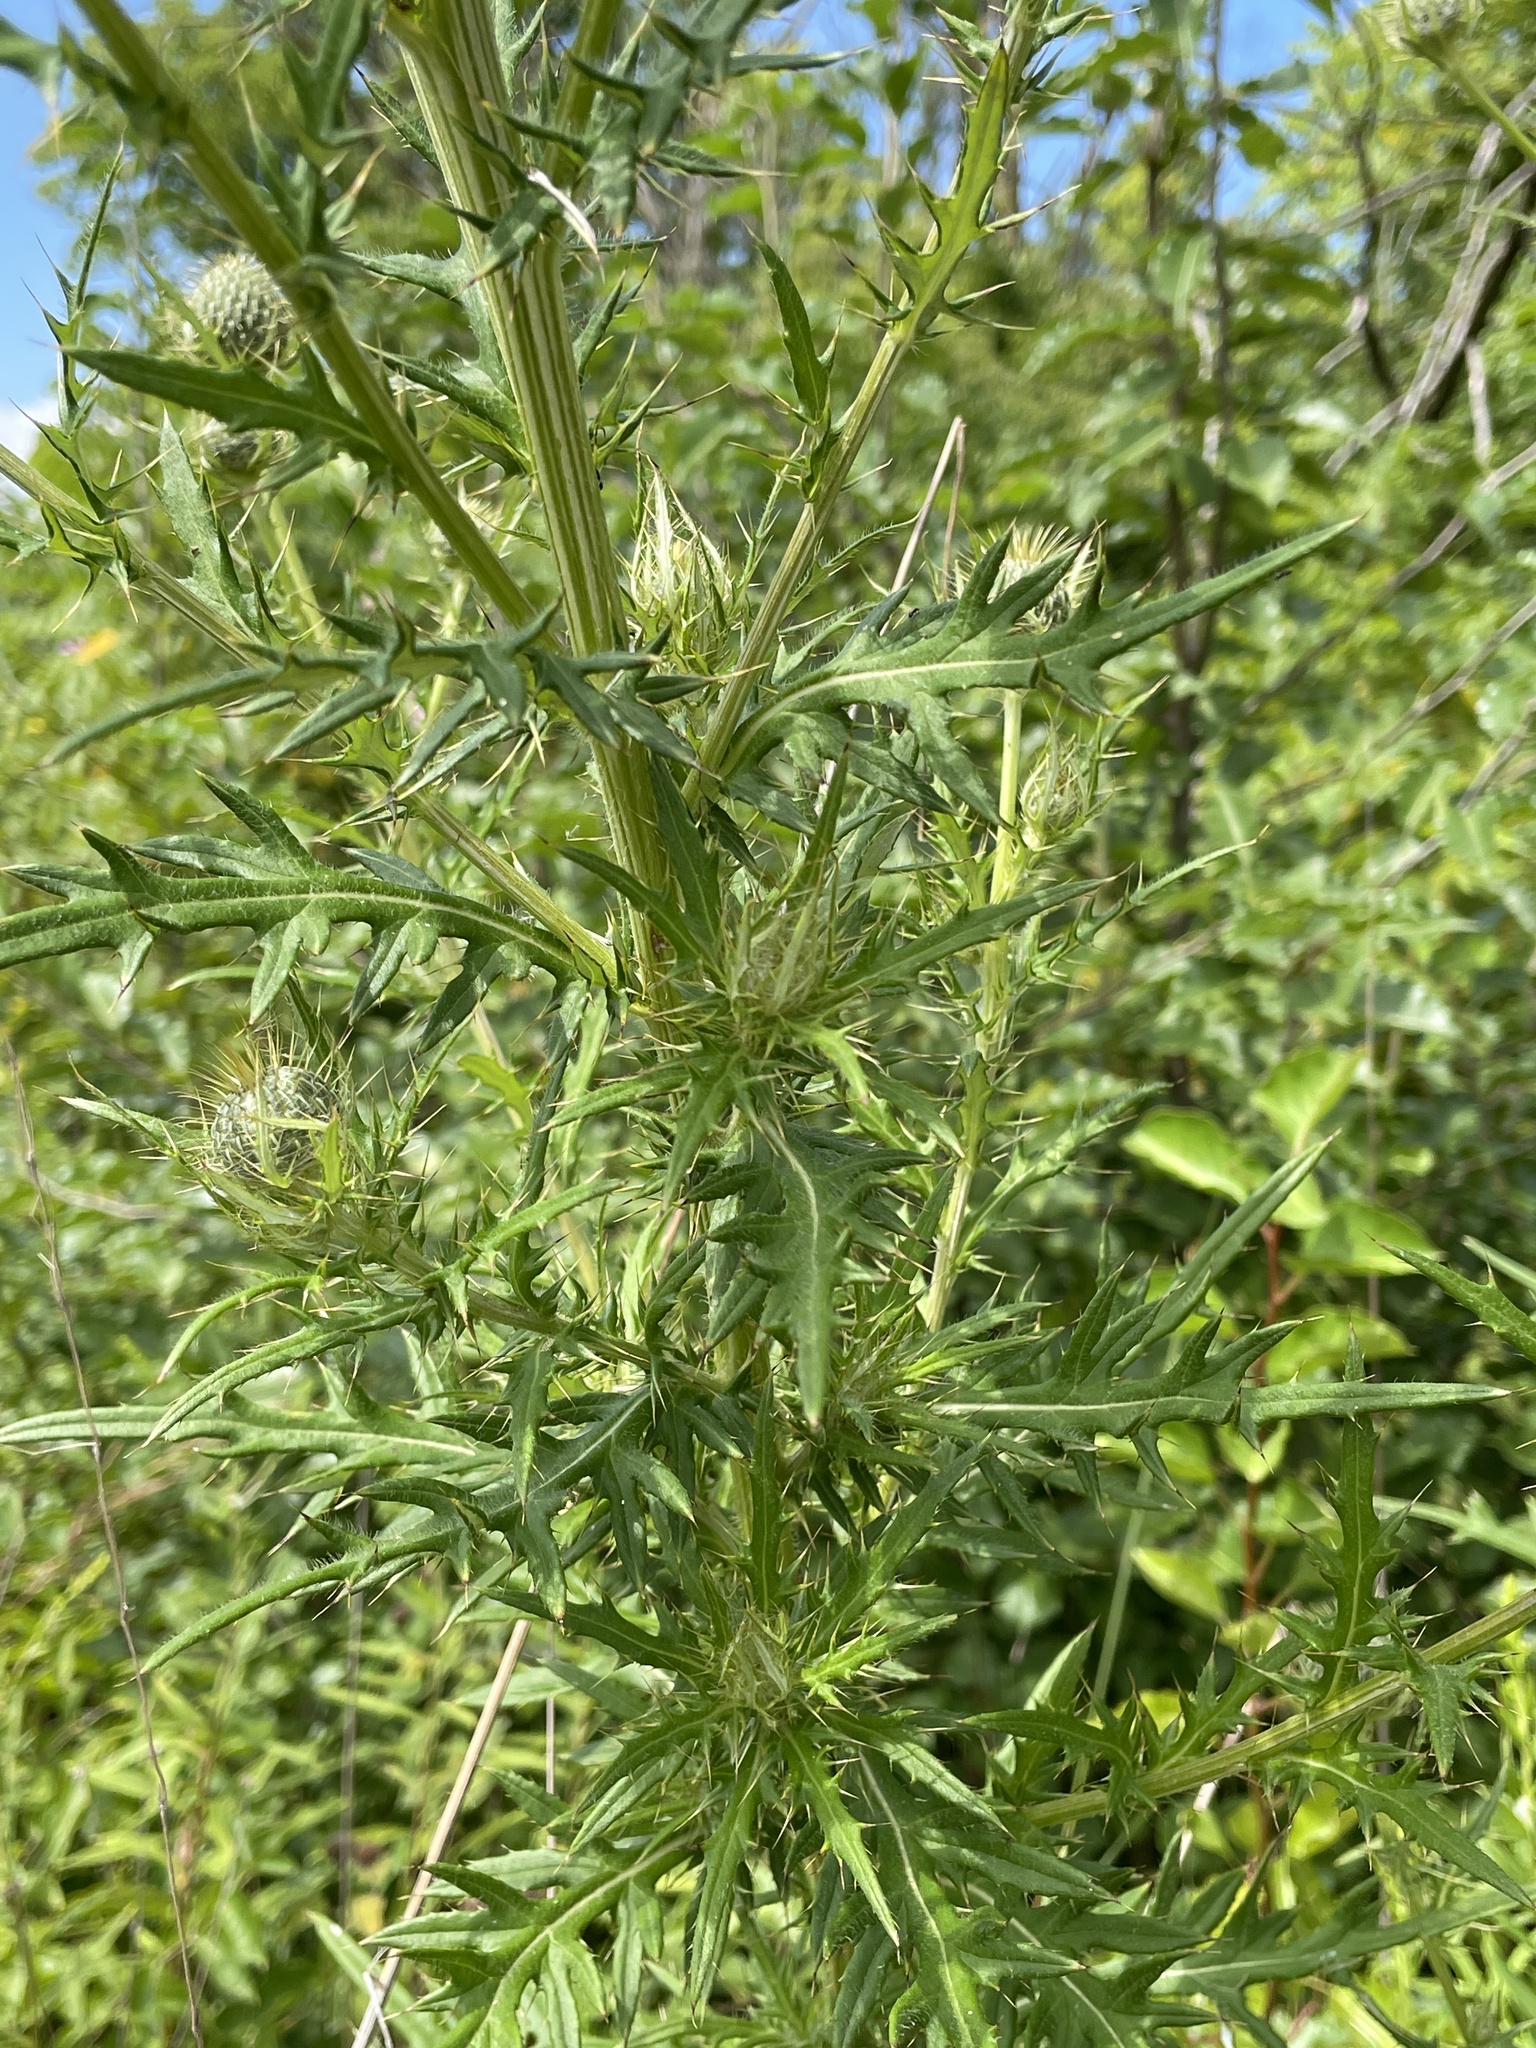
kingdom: Plantae
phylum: Tracheophyta
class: Magnoliopsida
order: Asterales
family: Asteraceae
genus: Cirsium
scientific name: Cirsium discolor
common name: Field thistle
